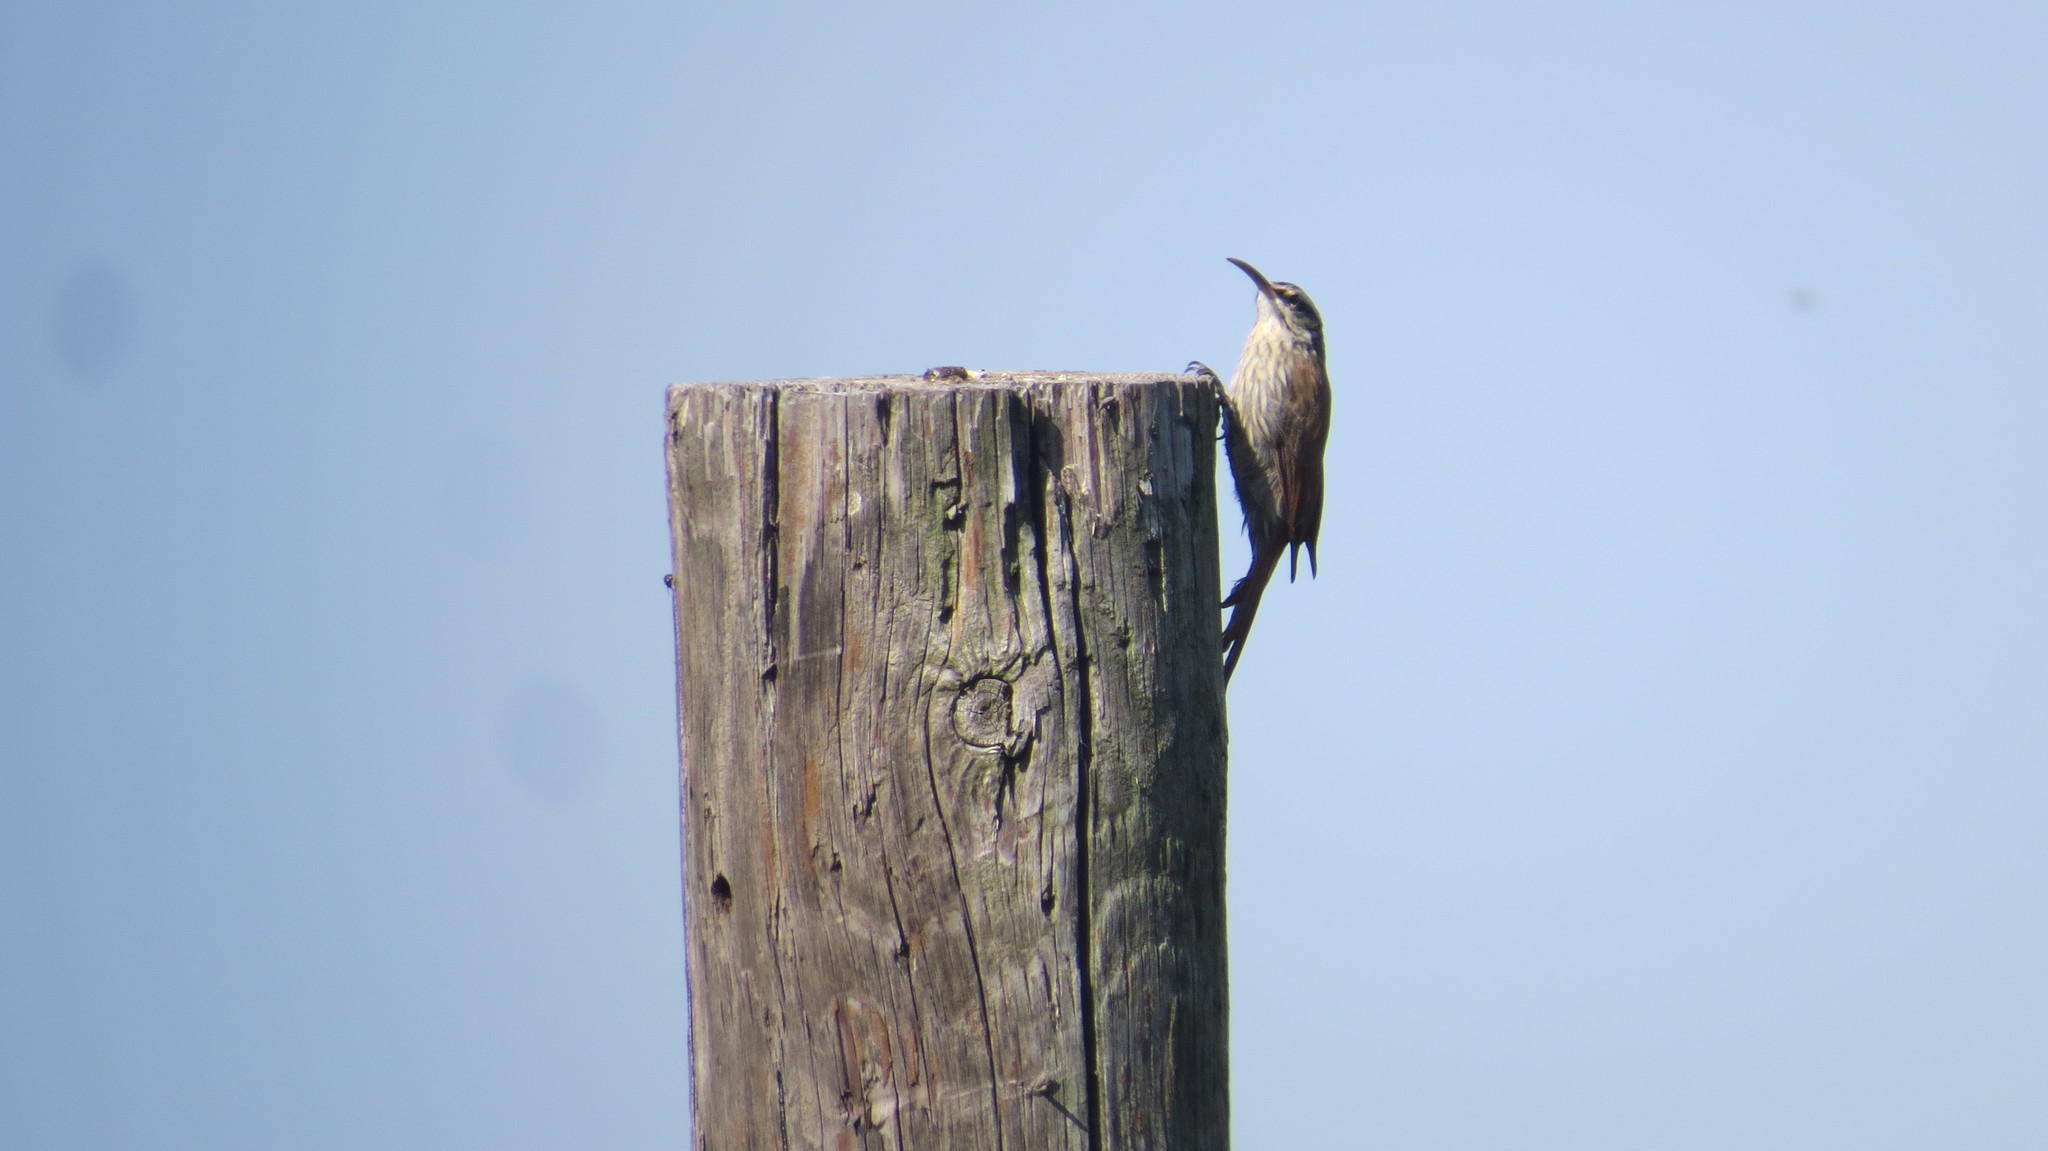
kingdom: Animalia
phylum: Chordata
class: Aves
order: Passeriformes
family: Furnariidae
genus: Lepidocolaptes
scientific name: Lepidocolaptes angustirostris
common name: Narrow-billed woodcreeper
